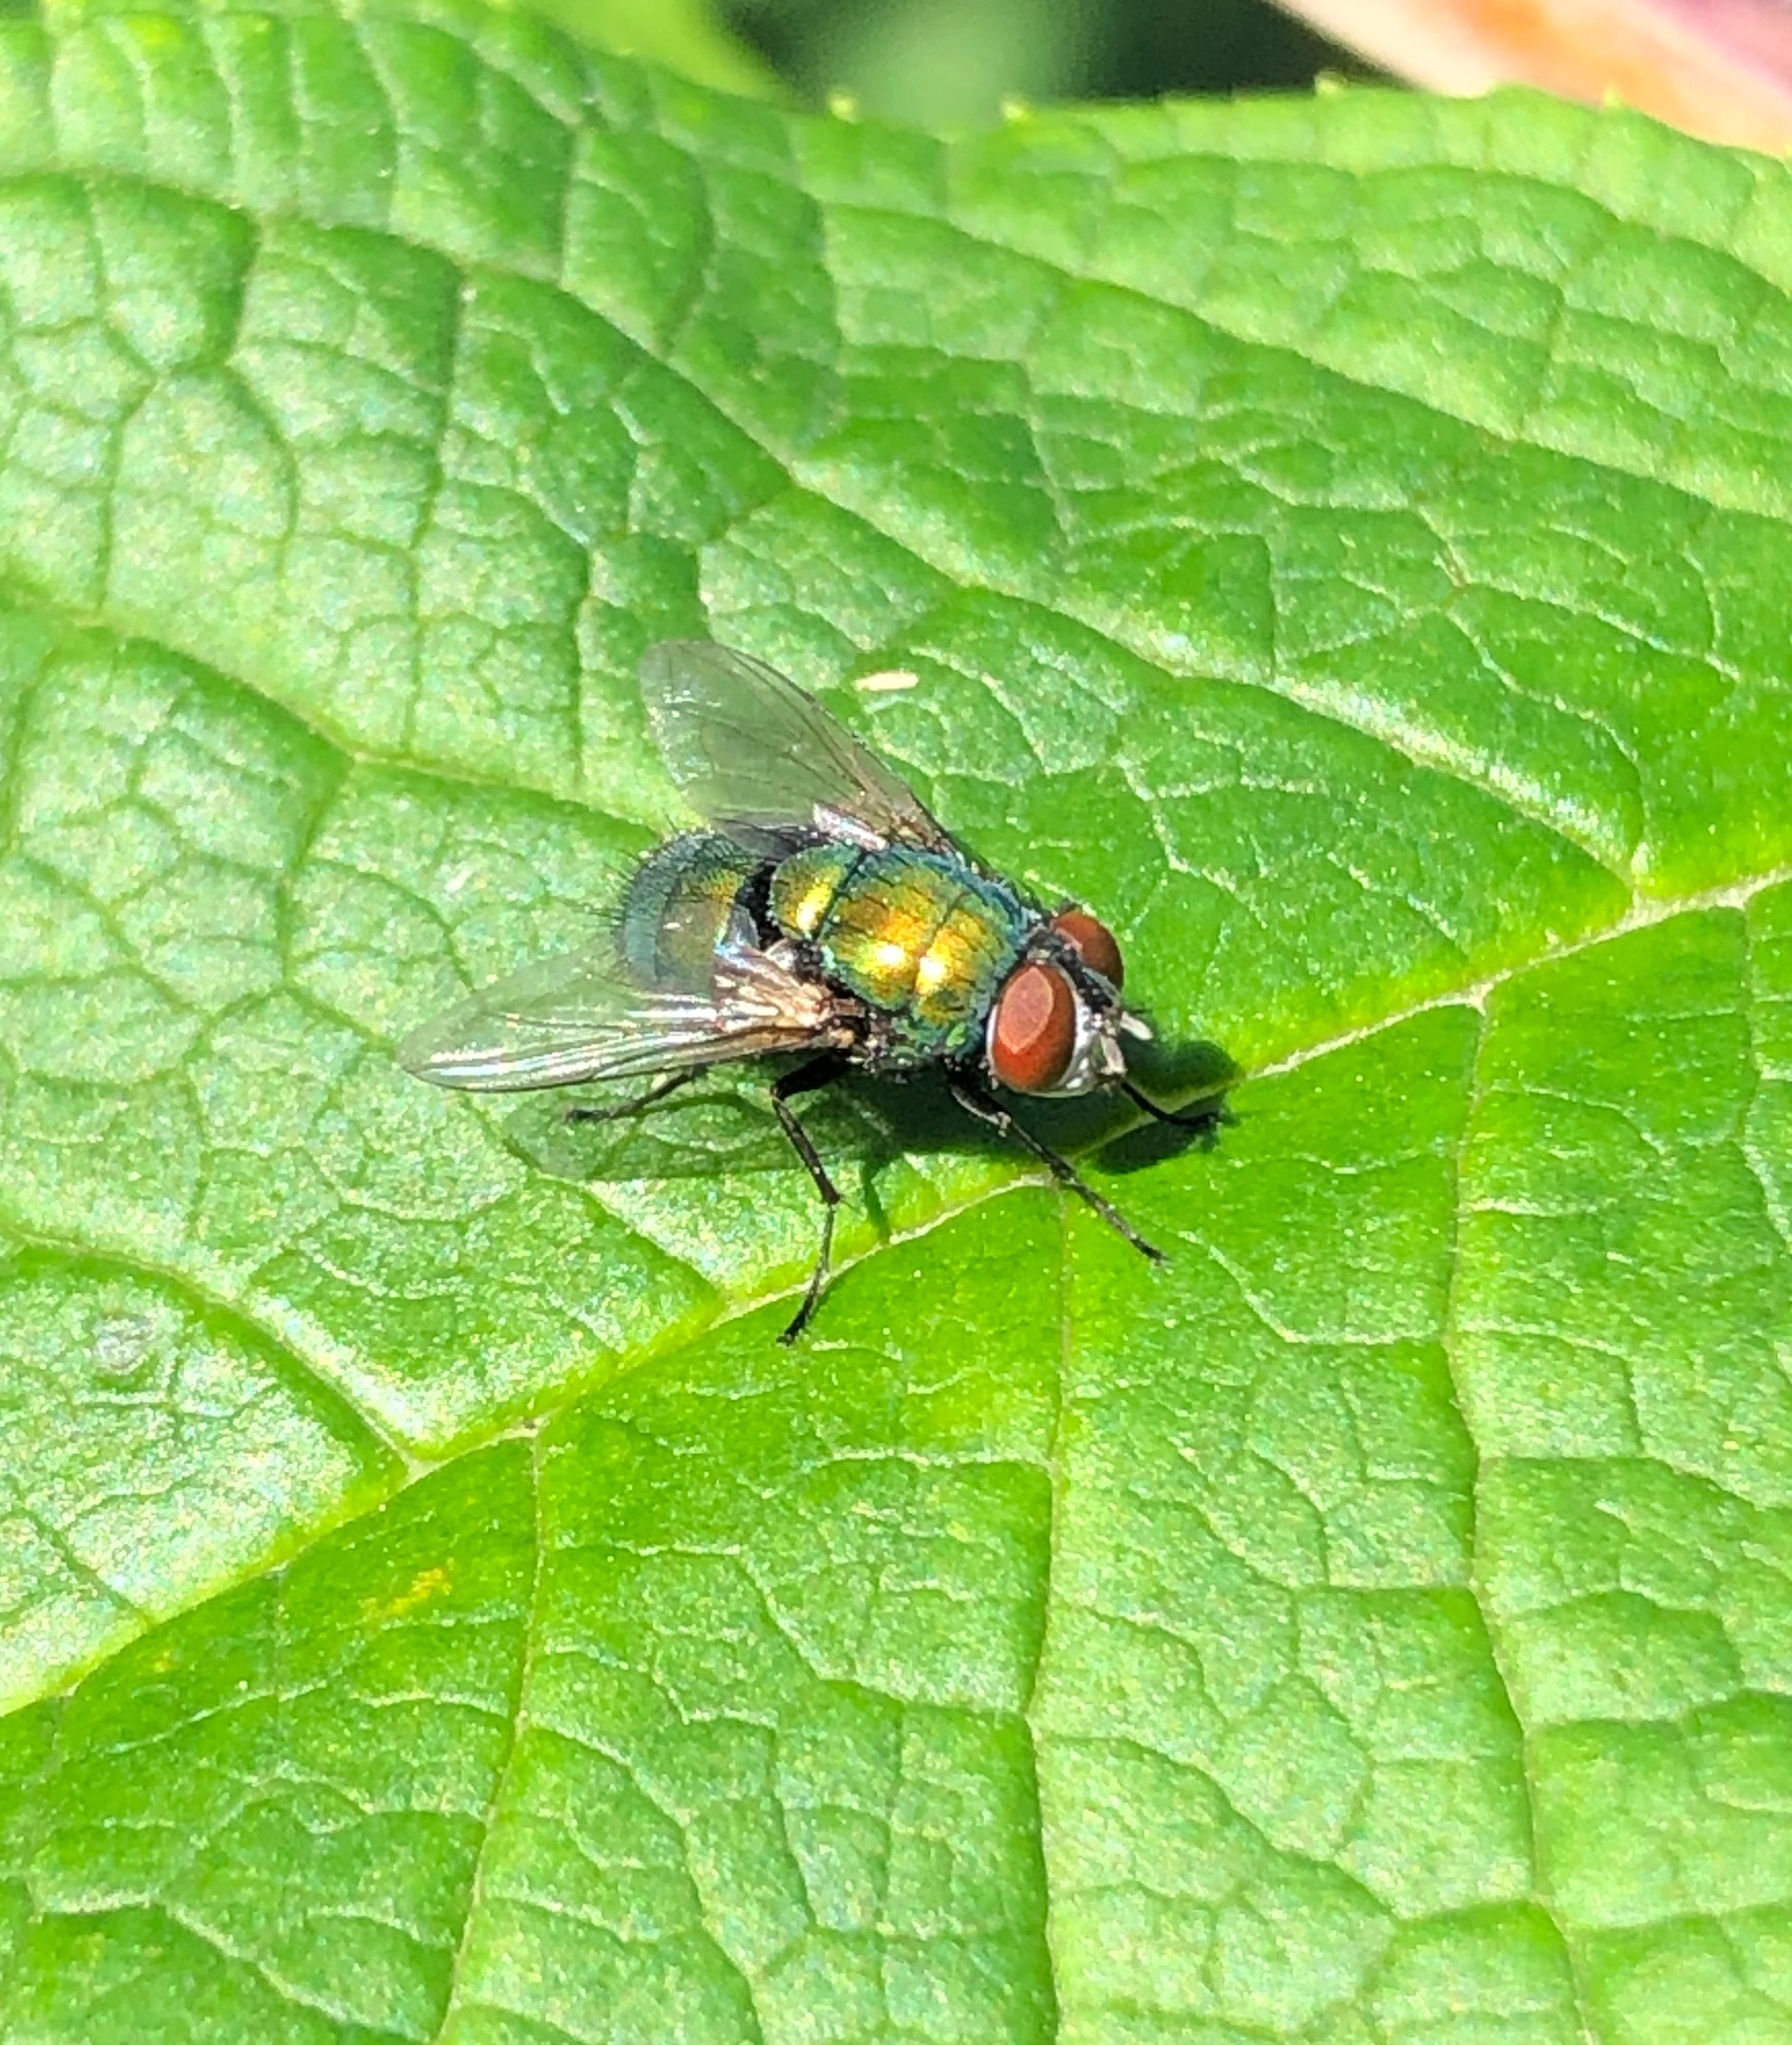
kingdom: Animalia
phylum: Arthropoda
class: Insecta
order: Diptera
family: Calliphoridae
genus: Lucilia
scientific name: Lucilia sericata
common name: Blow fly
